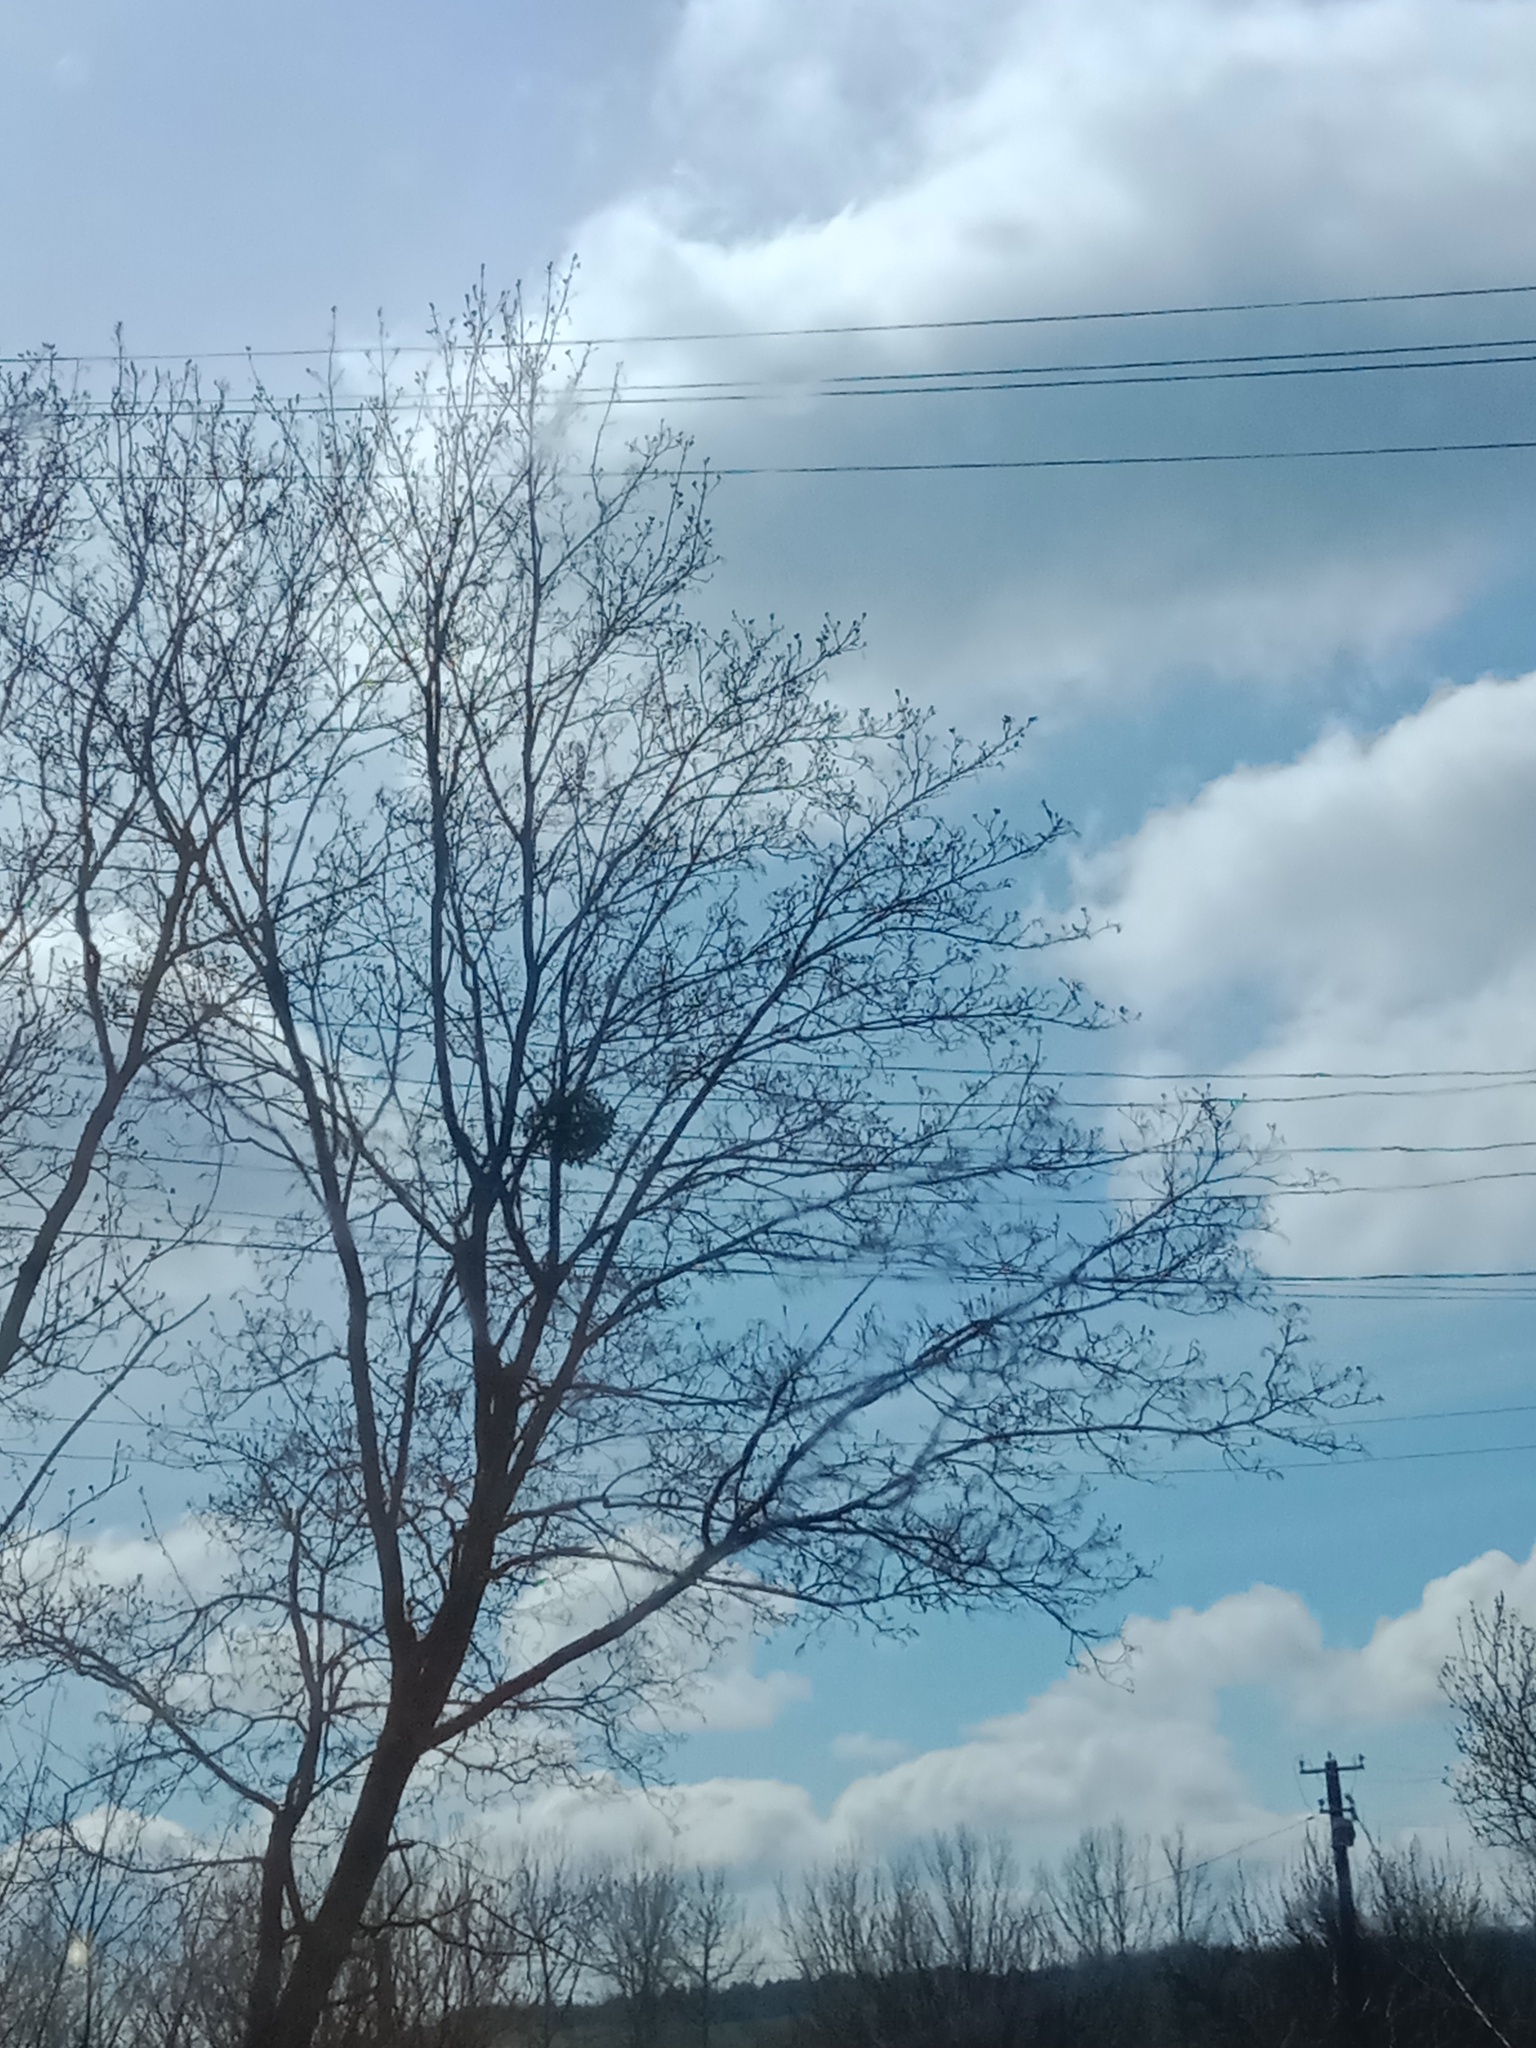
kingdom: Plantae
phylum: Tracheophyta
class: Magnoliopsida
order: Santalales
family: Viscaceae
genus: Viscum
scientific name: Viscum album
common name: Mistletoe
